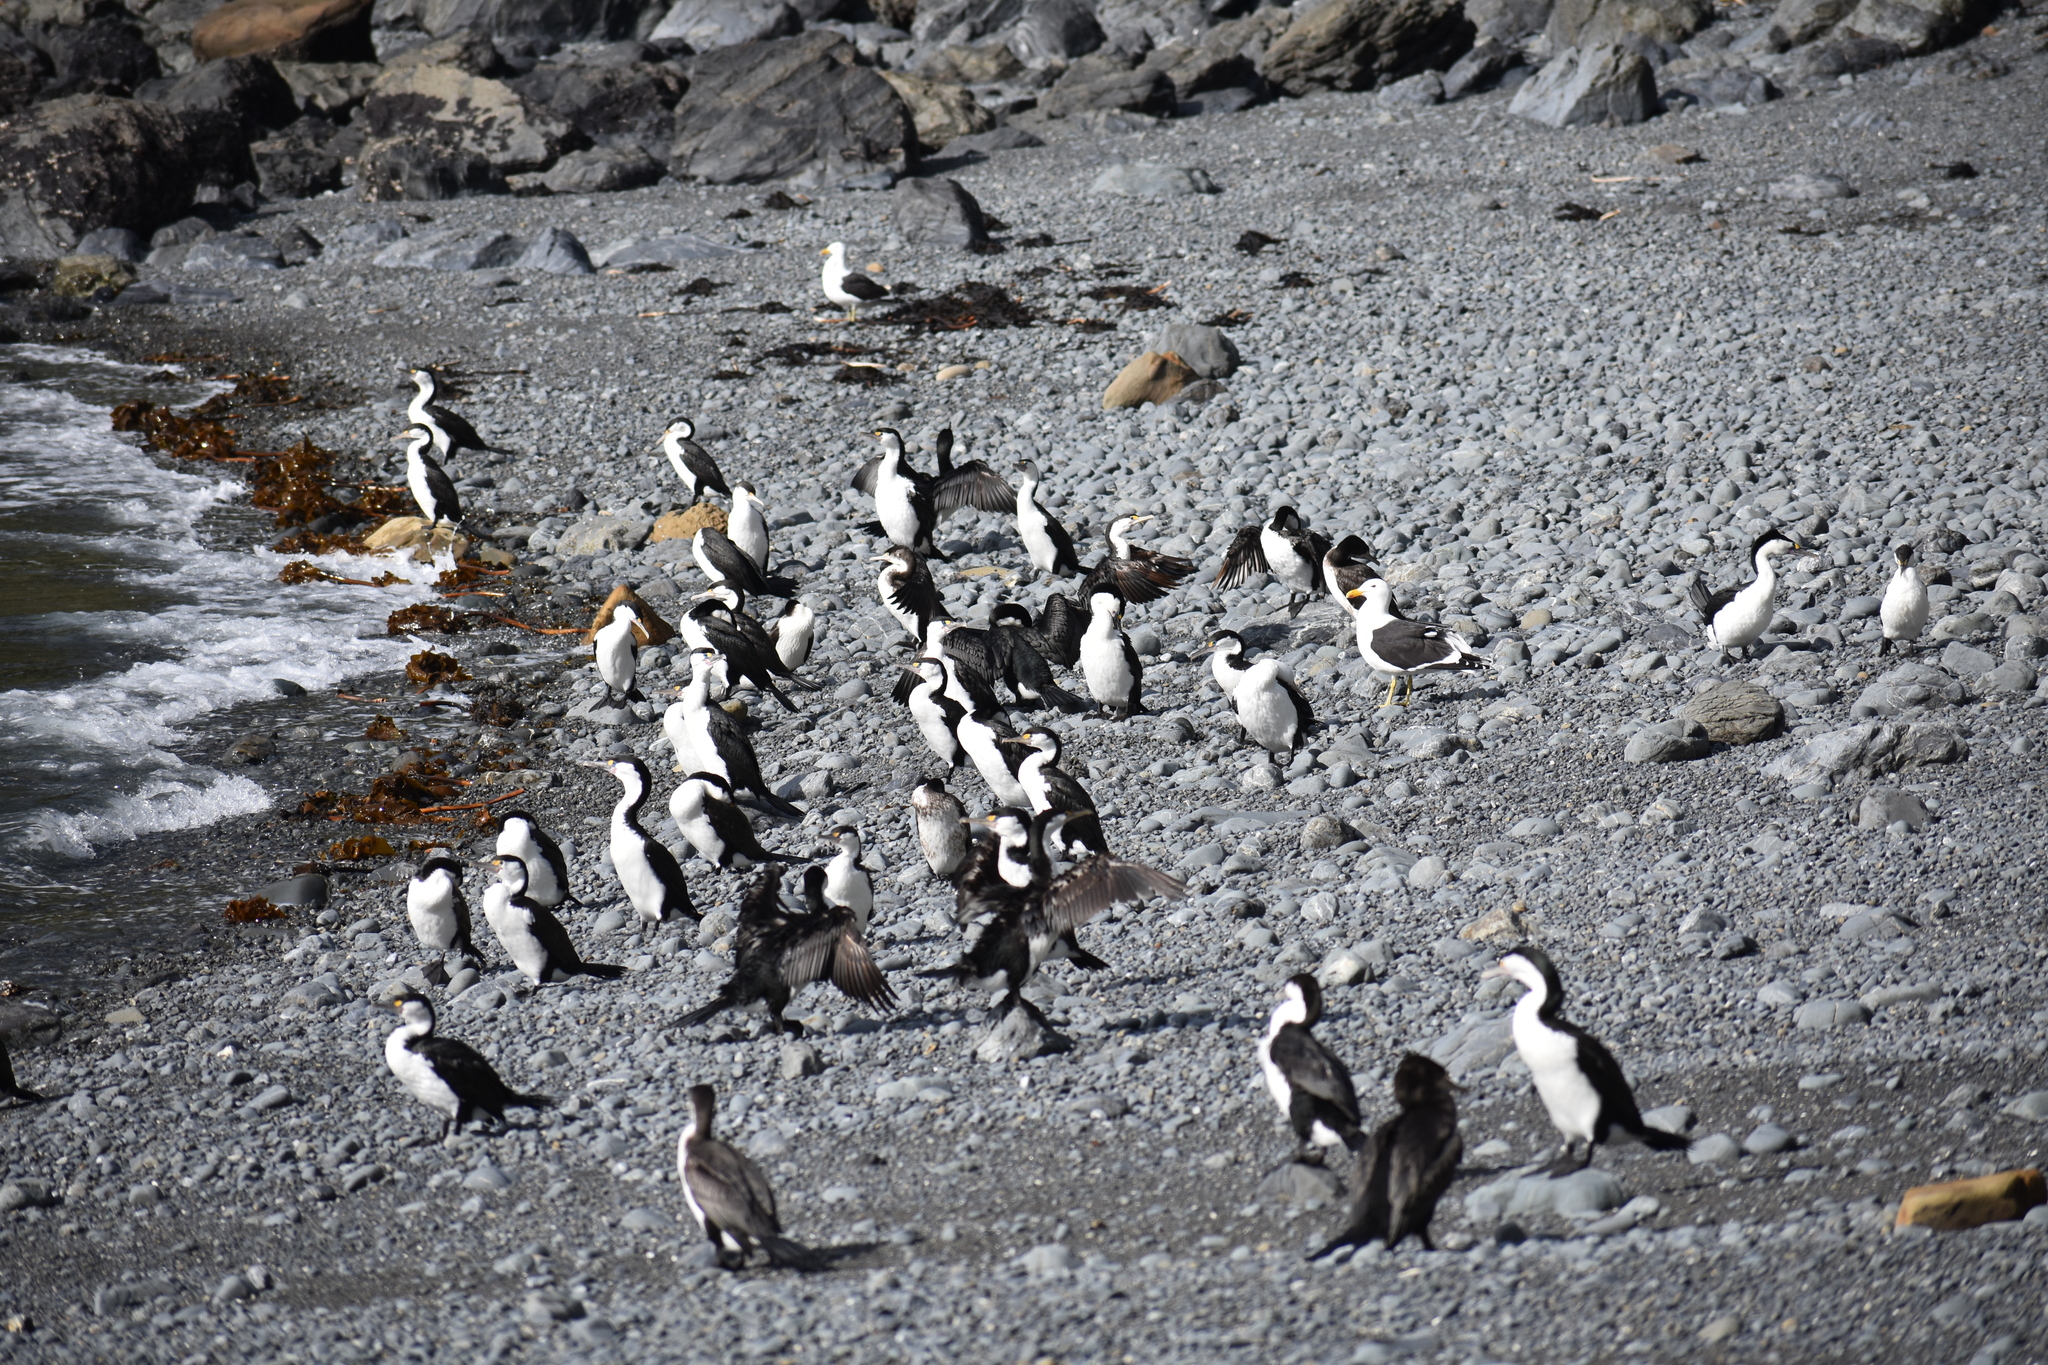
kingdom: Animalia
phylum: Chordata
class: Aves
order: Charadriiformes
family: Laridae
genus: Larus
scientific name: Larus dominicanus
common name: Kelp gull
